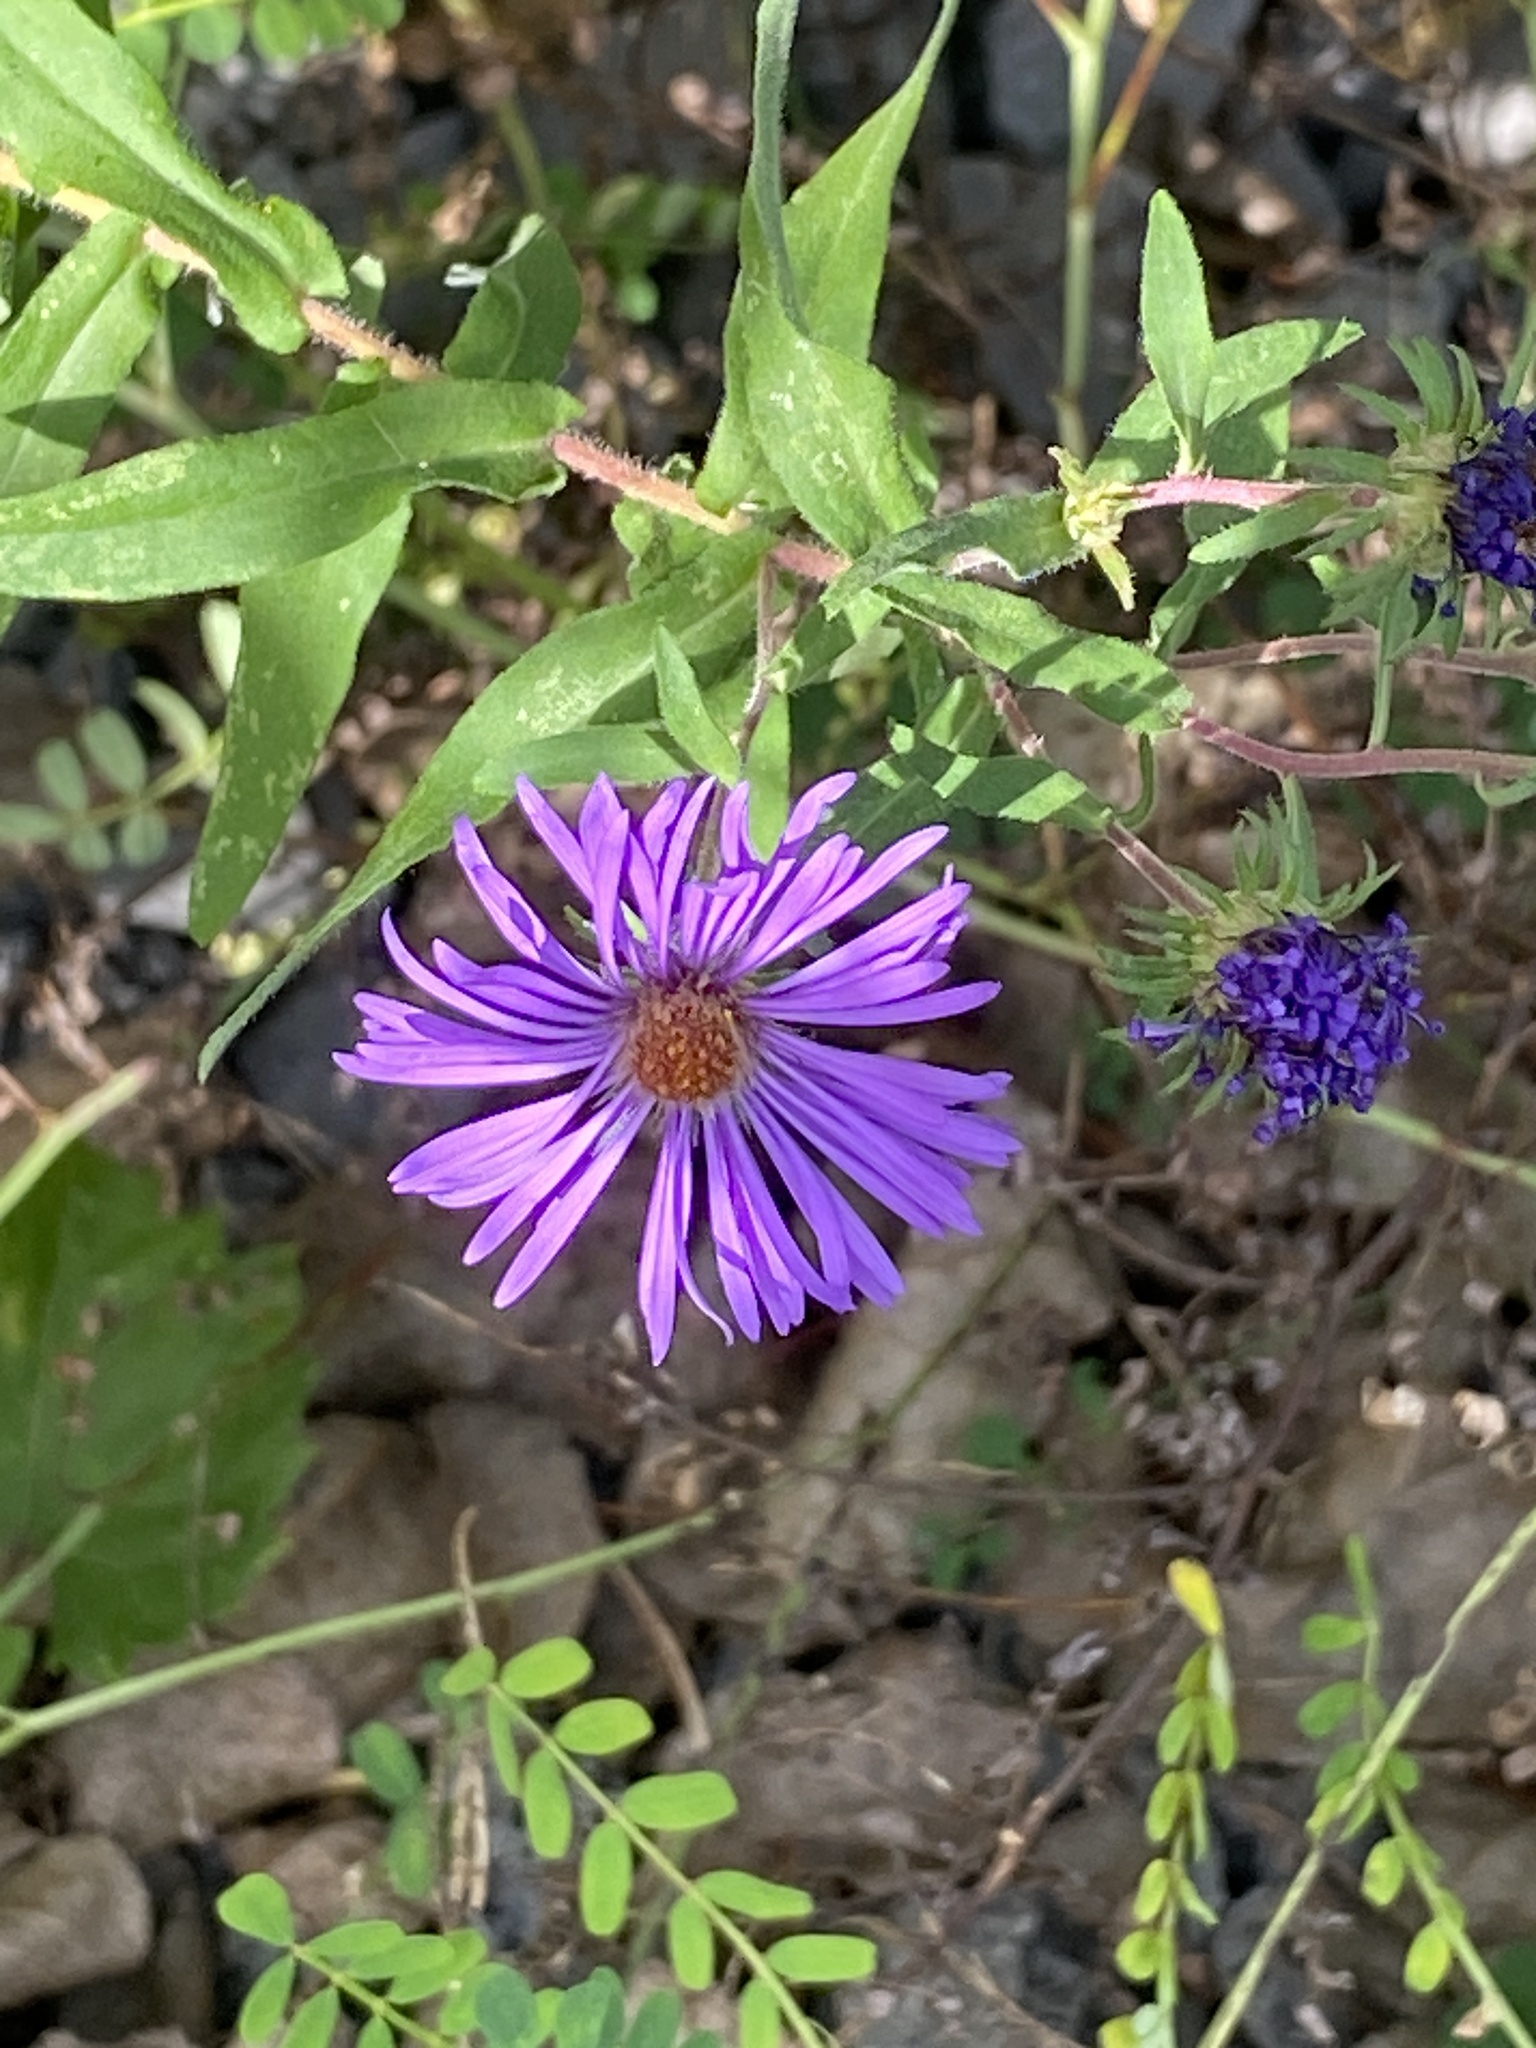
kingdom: Plantae
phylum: Tracheophyta
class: Magnoliopsida
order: Asterales
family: Asteraceae
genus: Symphyotrichum
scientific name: Symphyotrichum novae-angliae
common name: Michaelmas daisy
